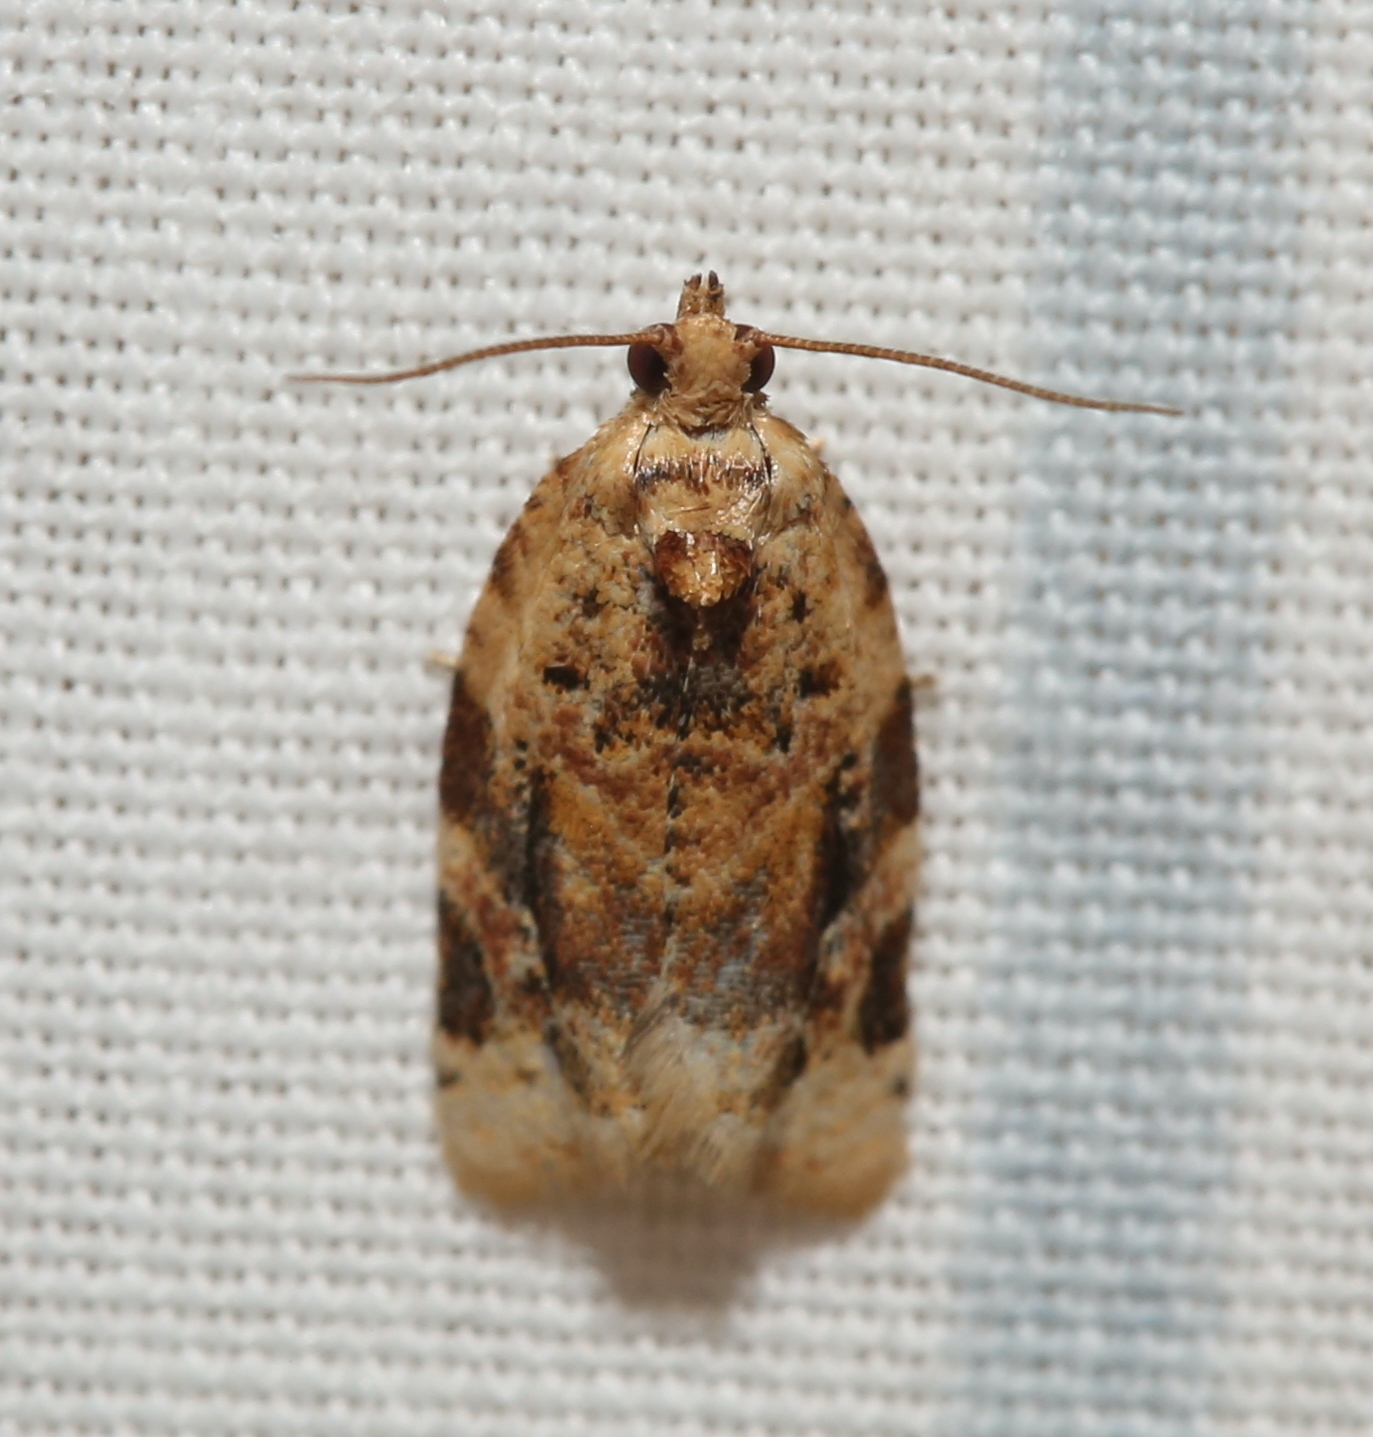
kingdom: Animalia
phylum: Arthropoda
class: Insecta
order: Lepidoptera
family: Tortricidae
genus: Argyrotaenia
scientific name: Argyrotaenia velutinana
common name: Red-banded leafroller moth
